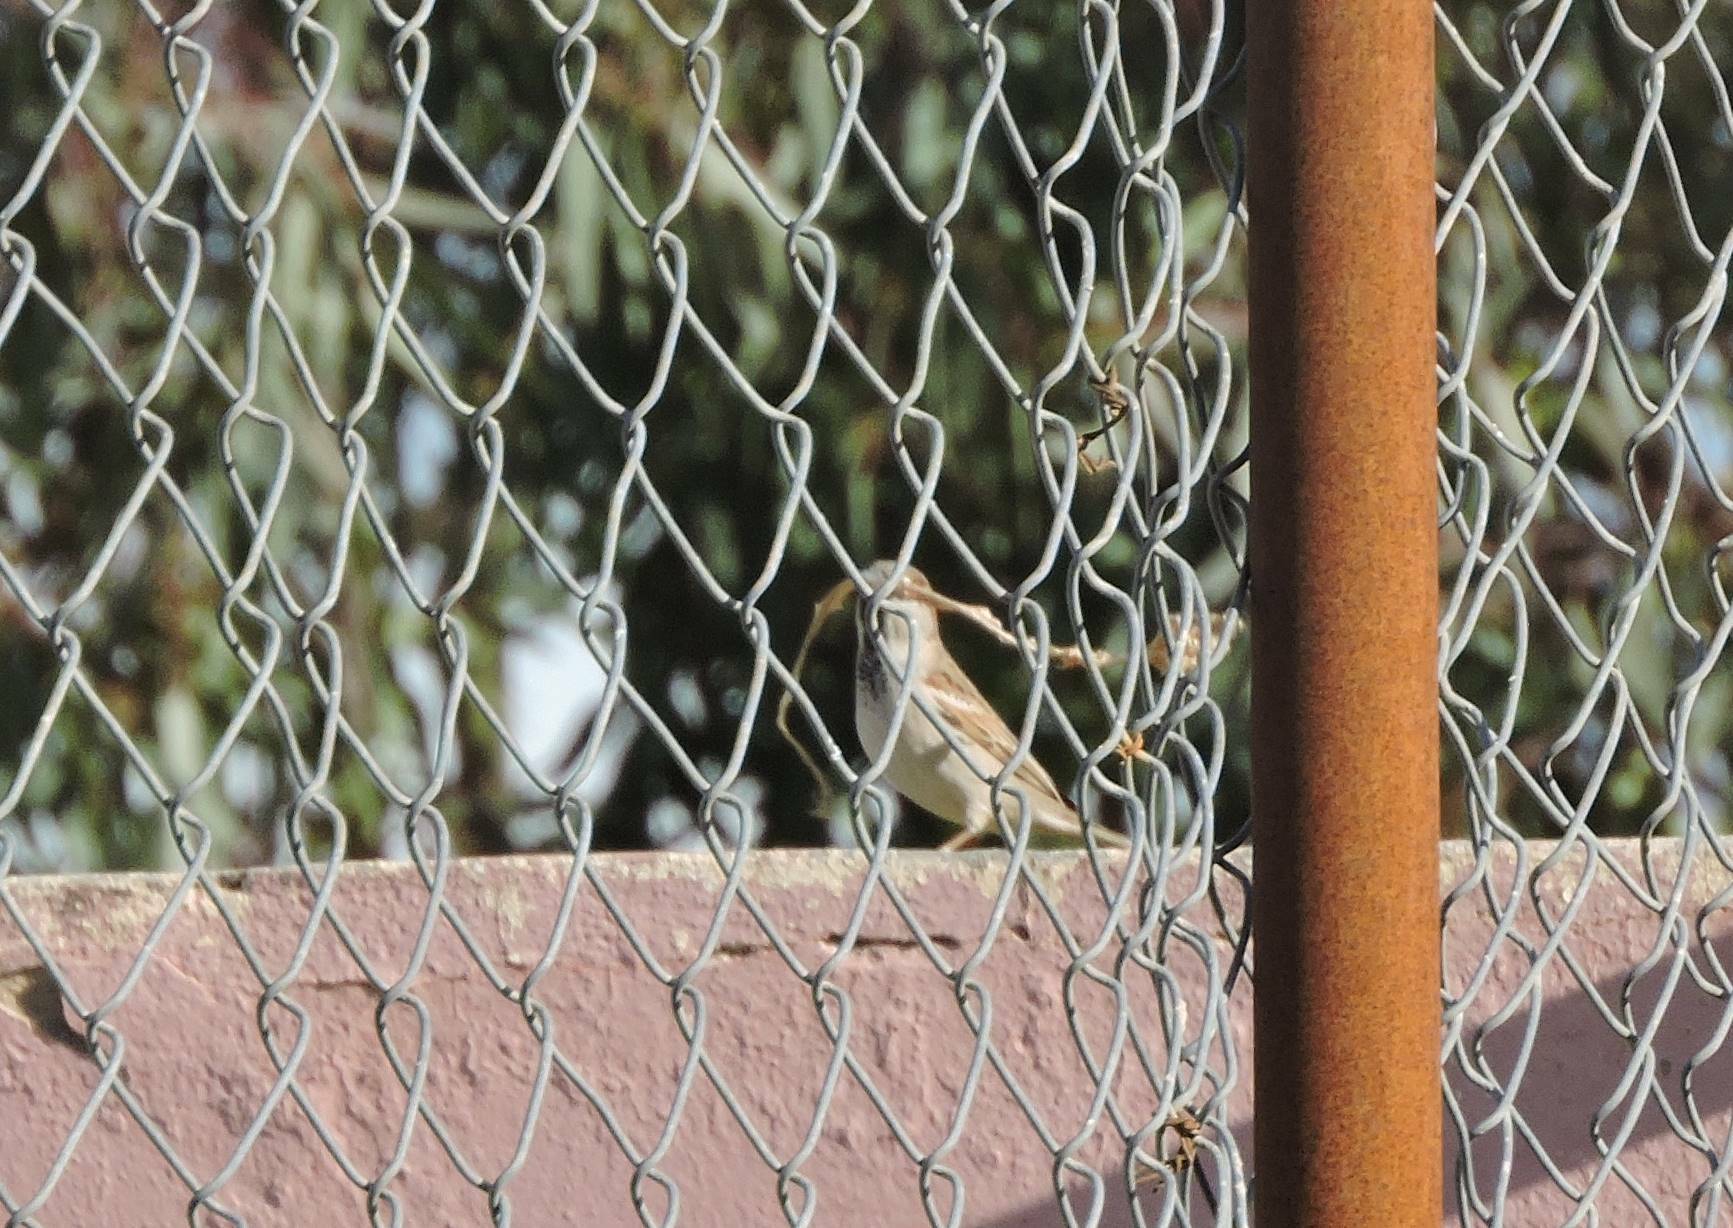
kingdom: Animalia
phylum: Chordata
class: Aves
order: Passeriformes
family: Passeridae
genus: Passer
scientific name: Passer domesticus
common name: House sparrow
